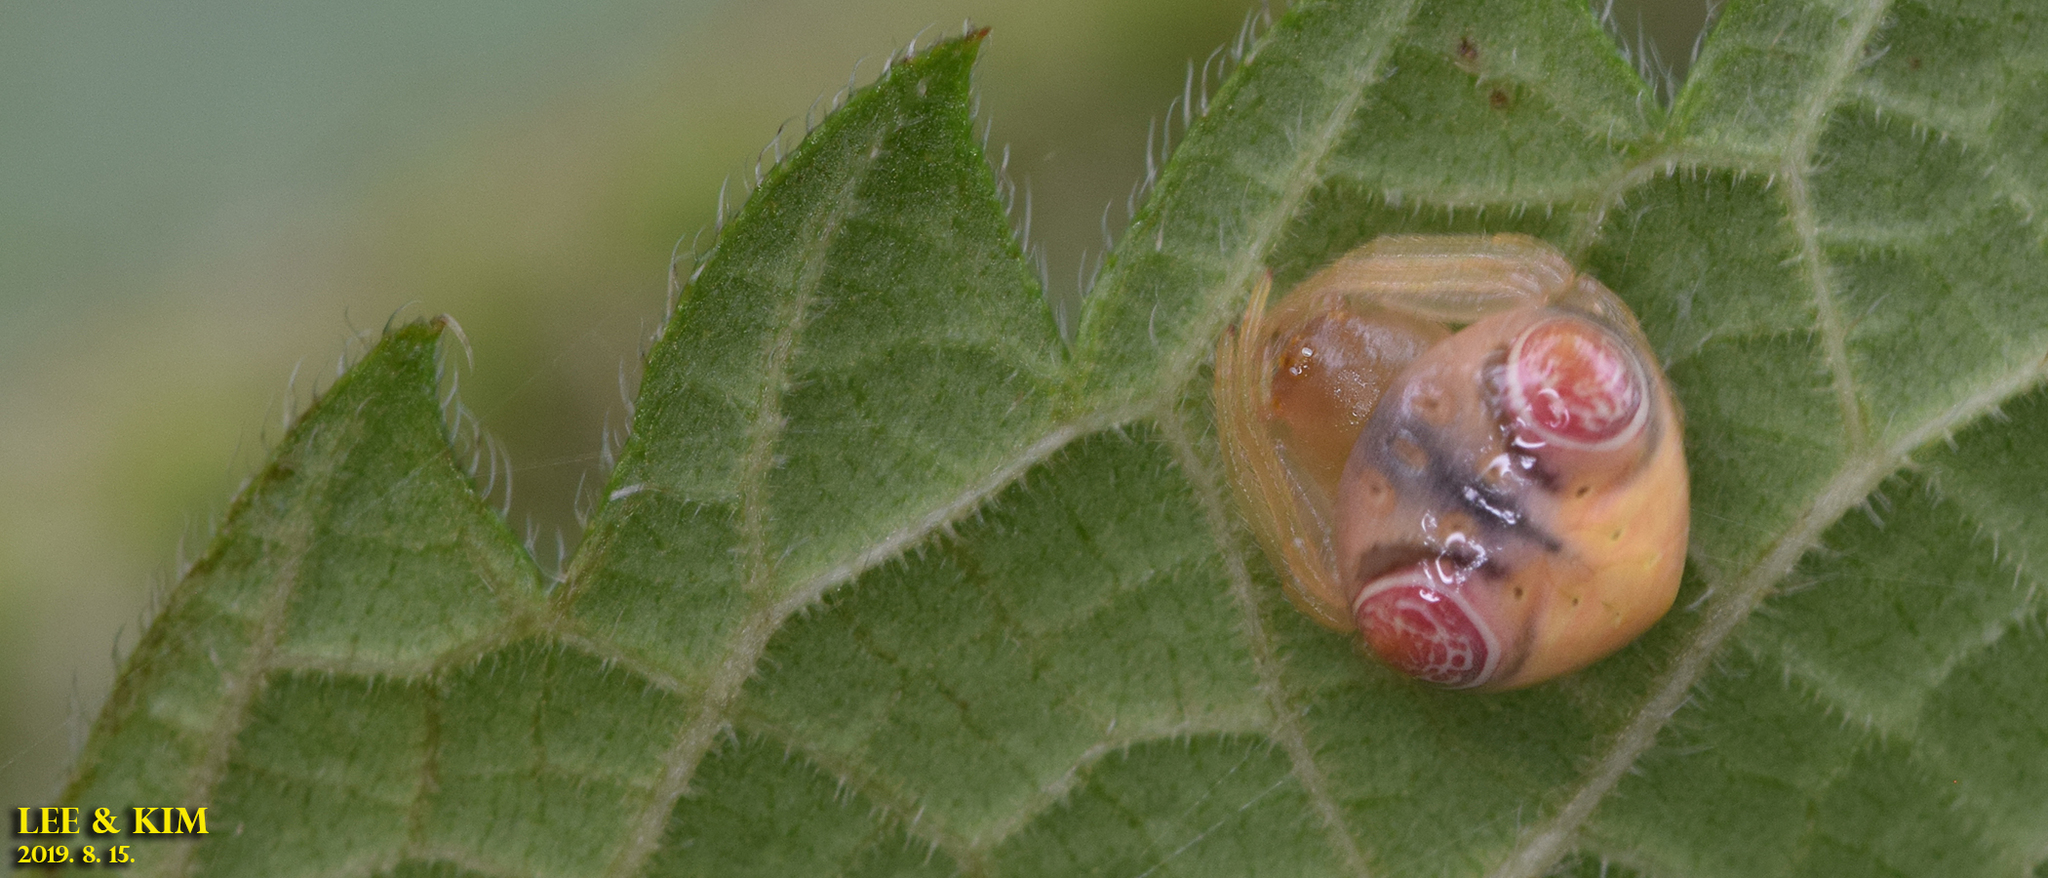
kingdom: Animalia
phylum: Arthropoda
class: Arachnida
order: Araneae
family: Araneidae
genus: Cyrtarachne
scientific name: Cyrtarachne inaequalis
